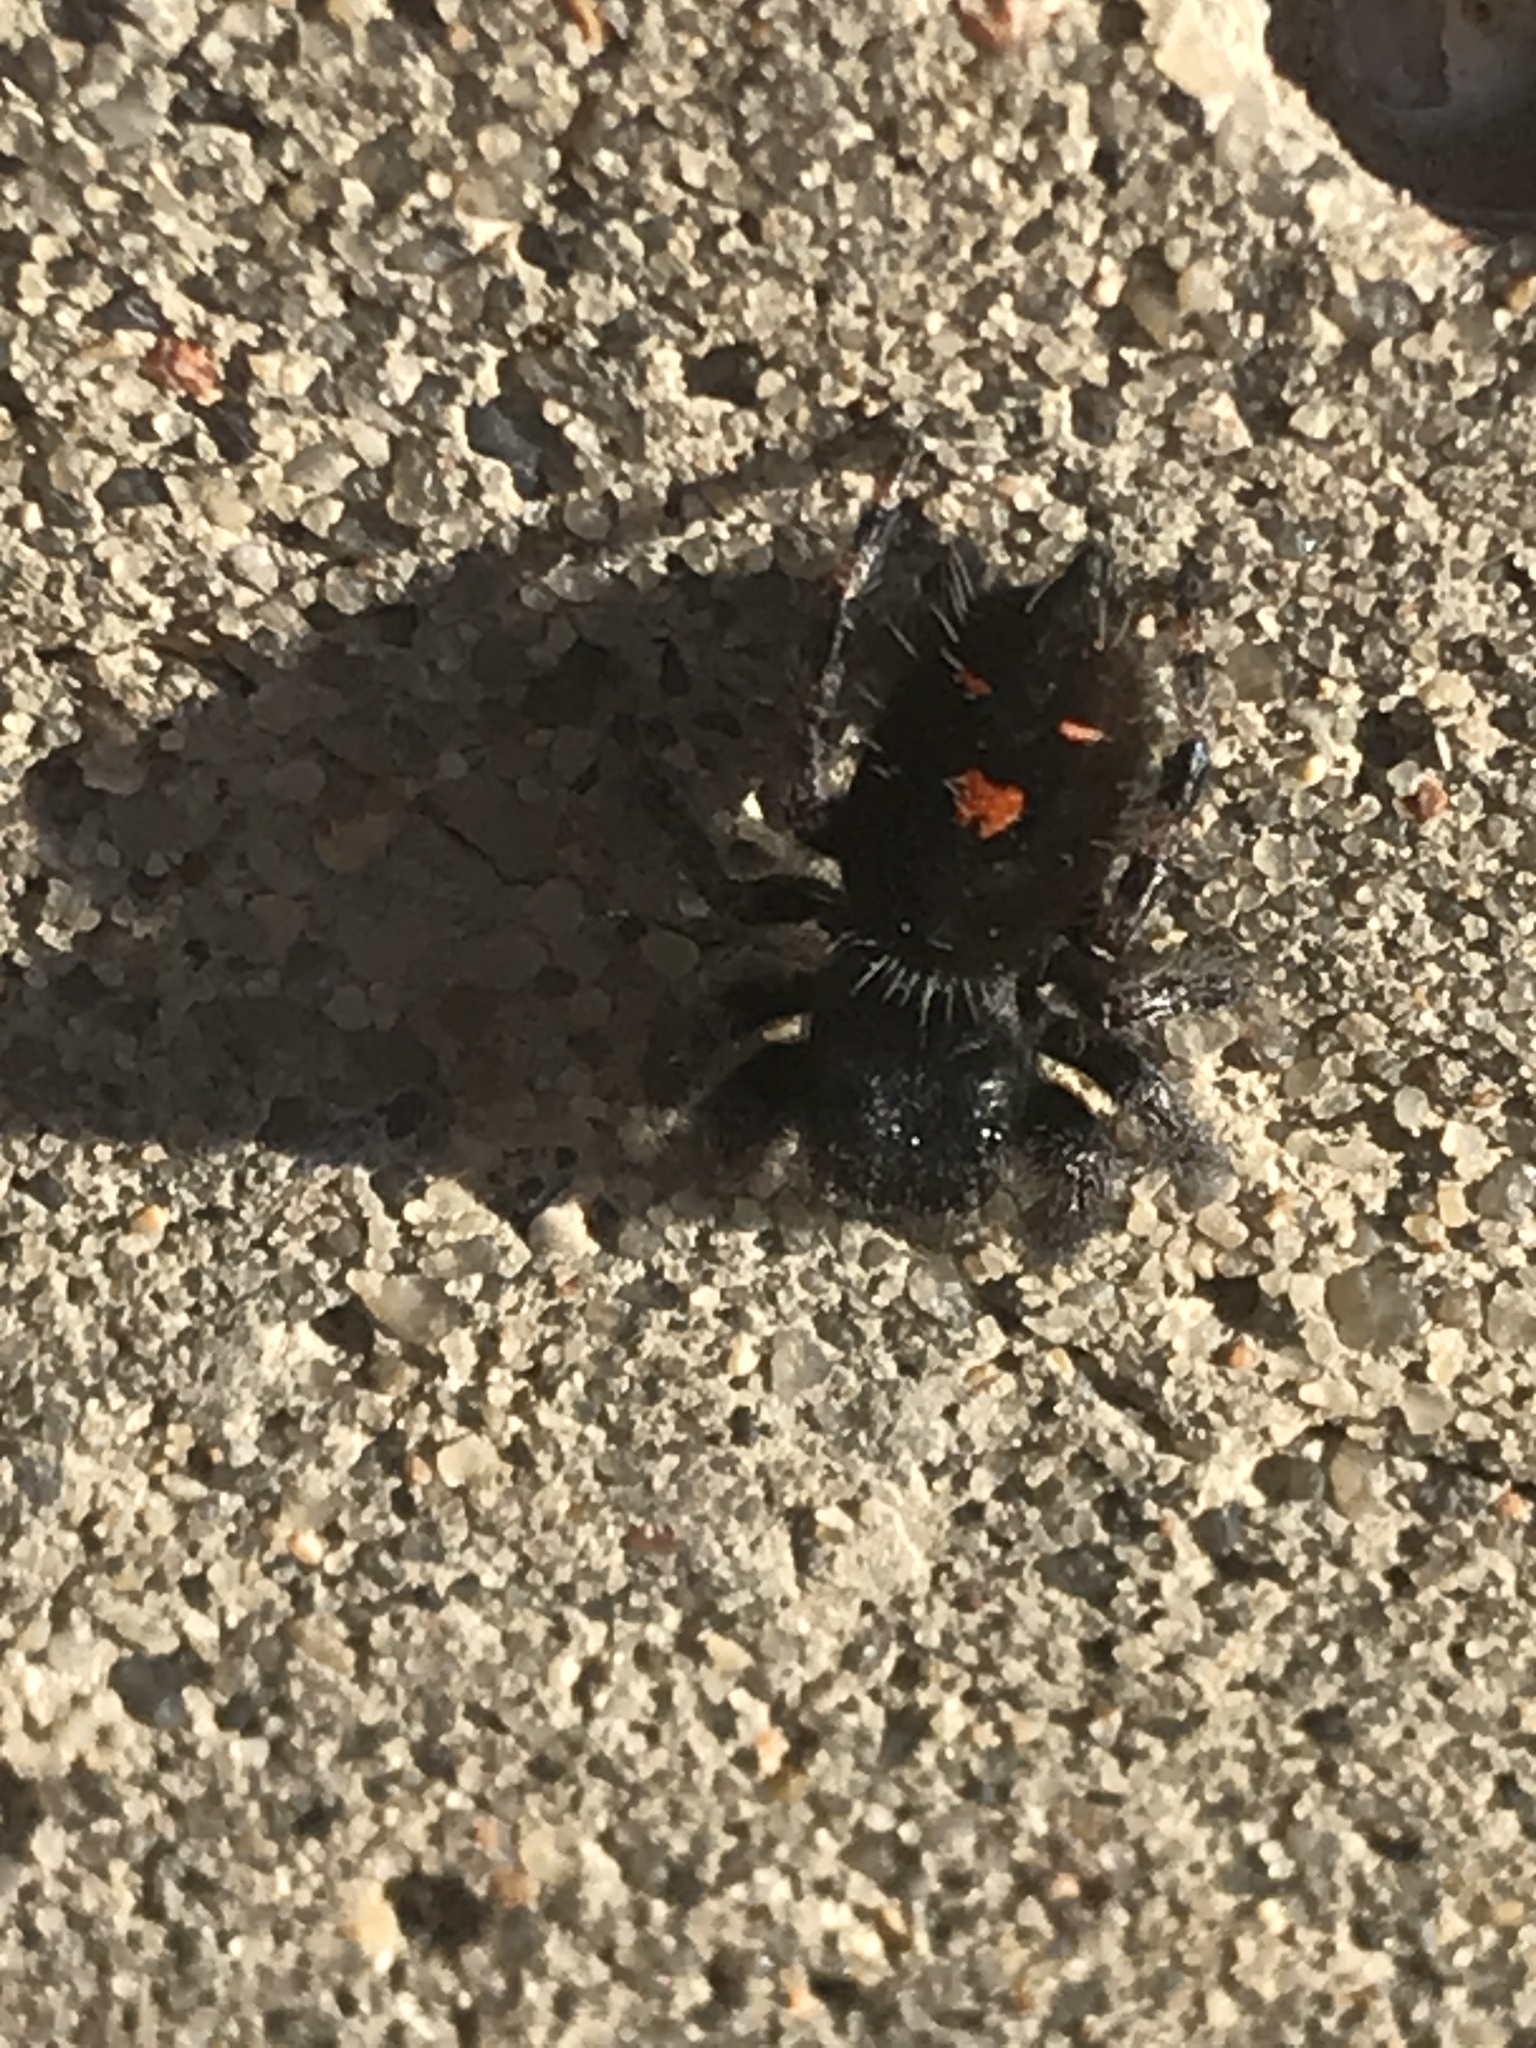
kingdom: Animalia
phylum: Arthropoda
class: Arachnida
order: Araneae
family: Salticidae
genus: Phidippus
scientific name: Phidippus audax
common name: Bold jumper
